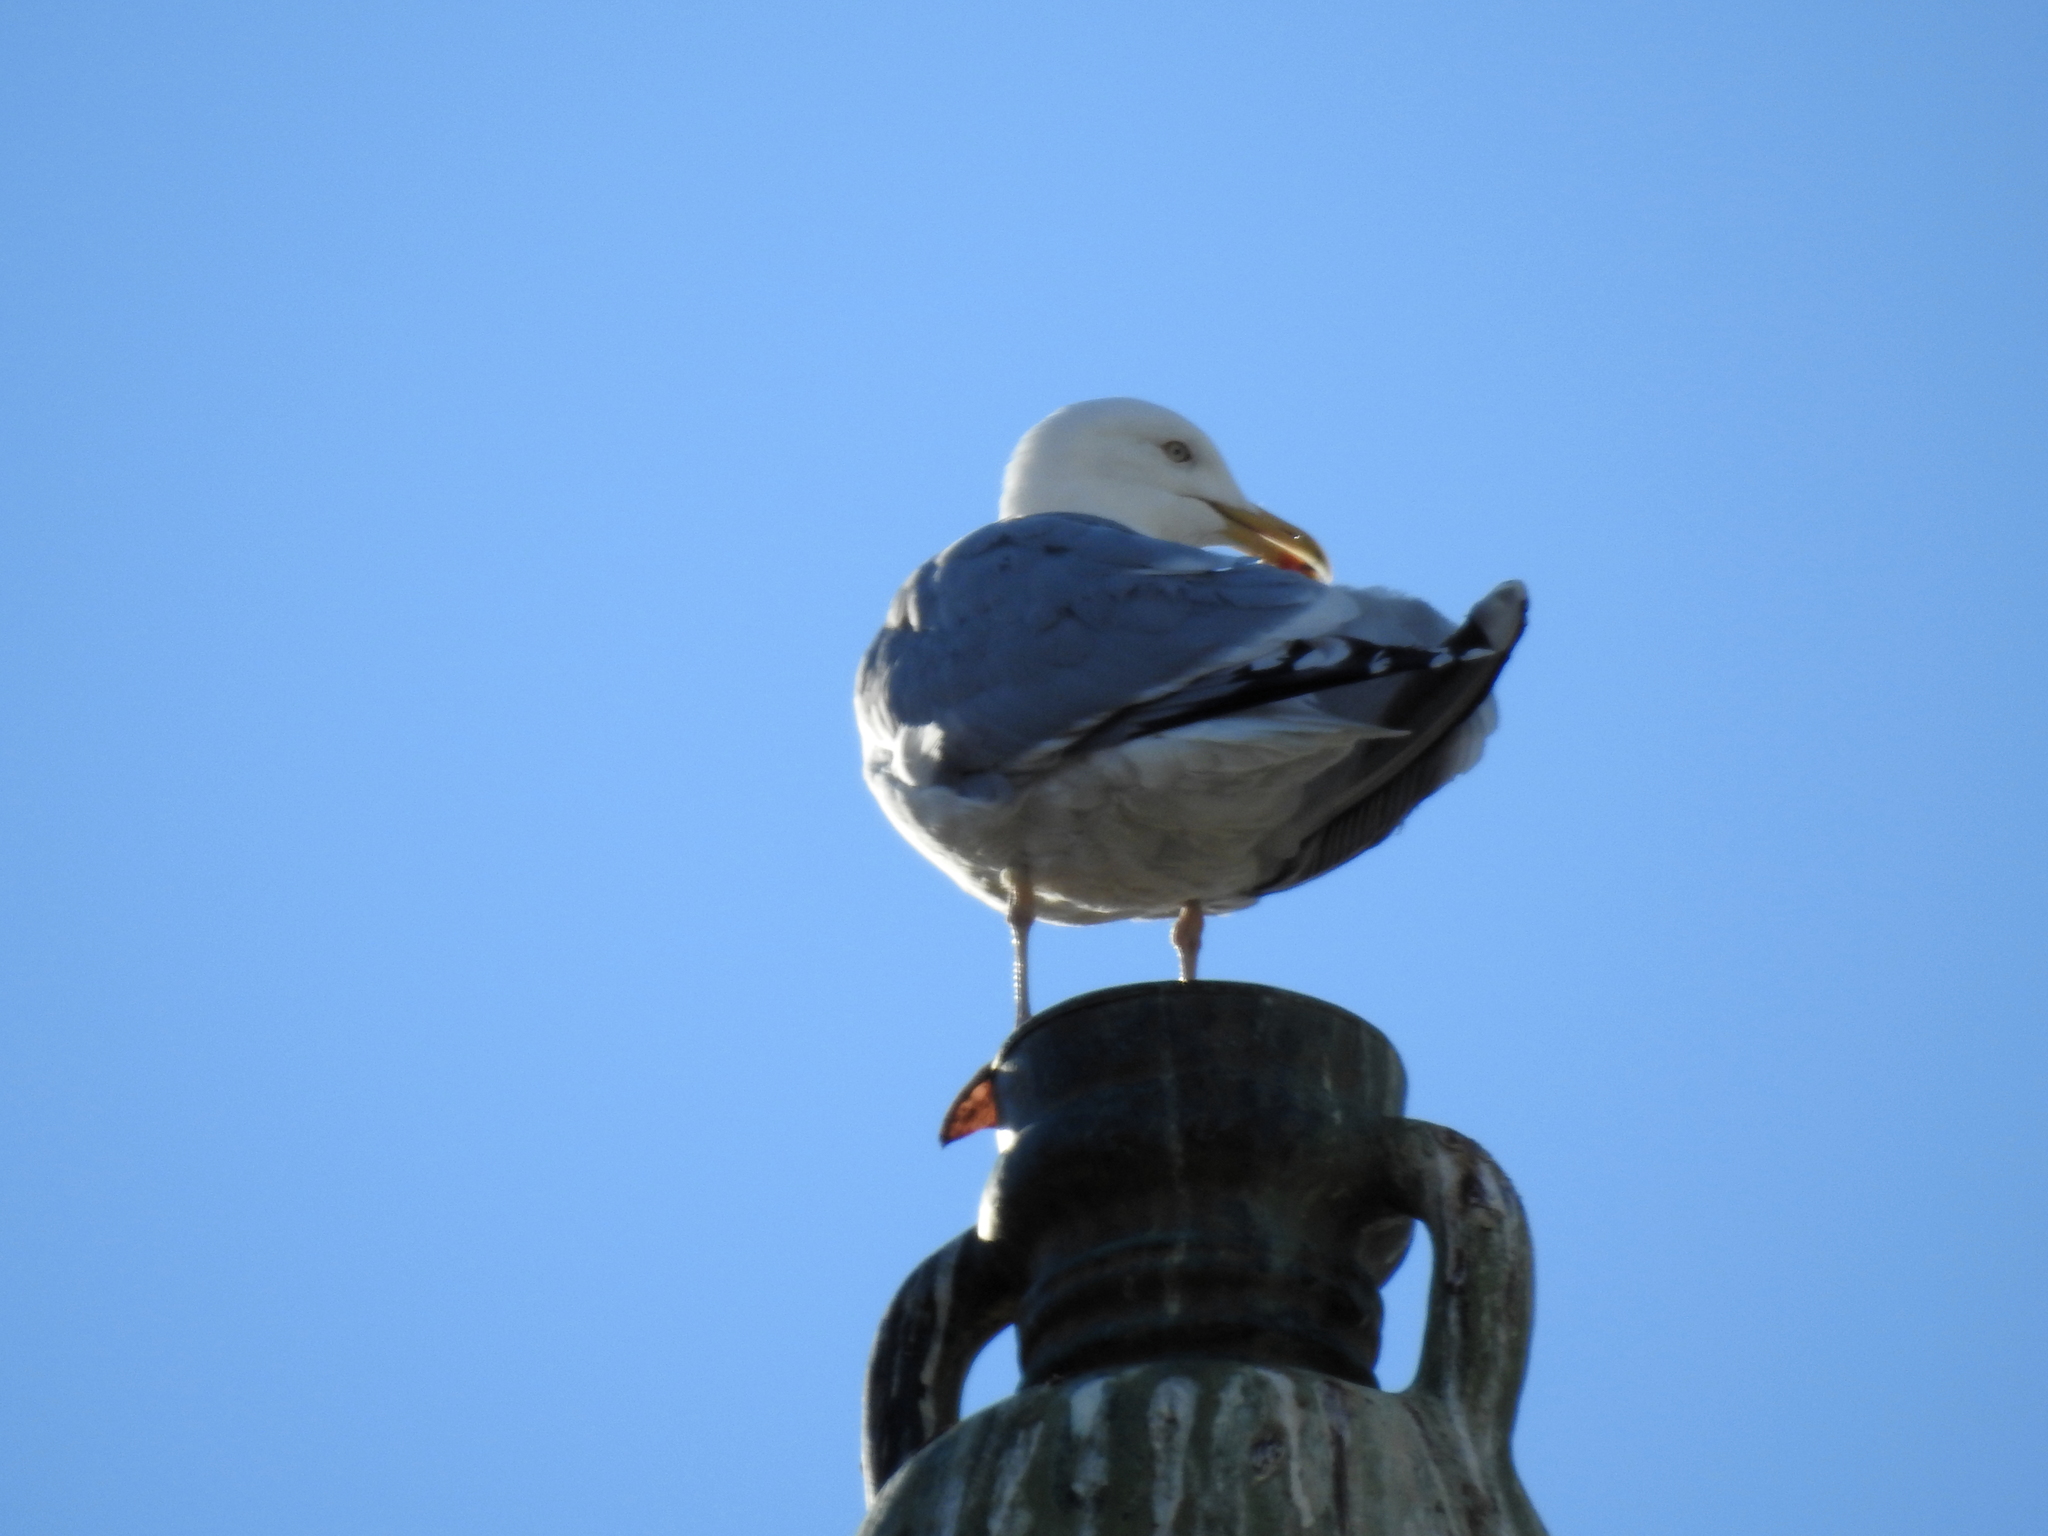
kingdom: Animalia
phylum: Chordata
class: Aves
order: Charadriiformes
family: Laridae
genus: Larus
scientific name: Larus argentatus
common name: Herring gull
